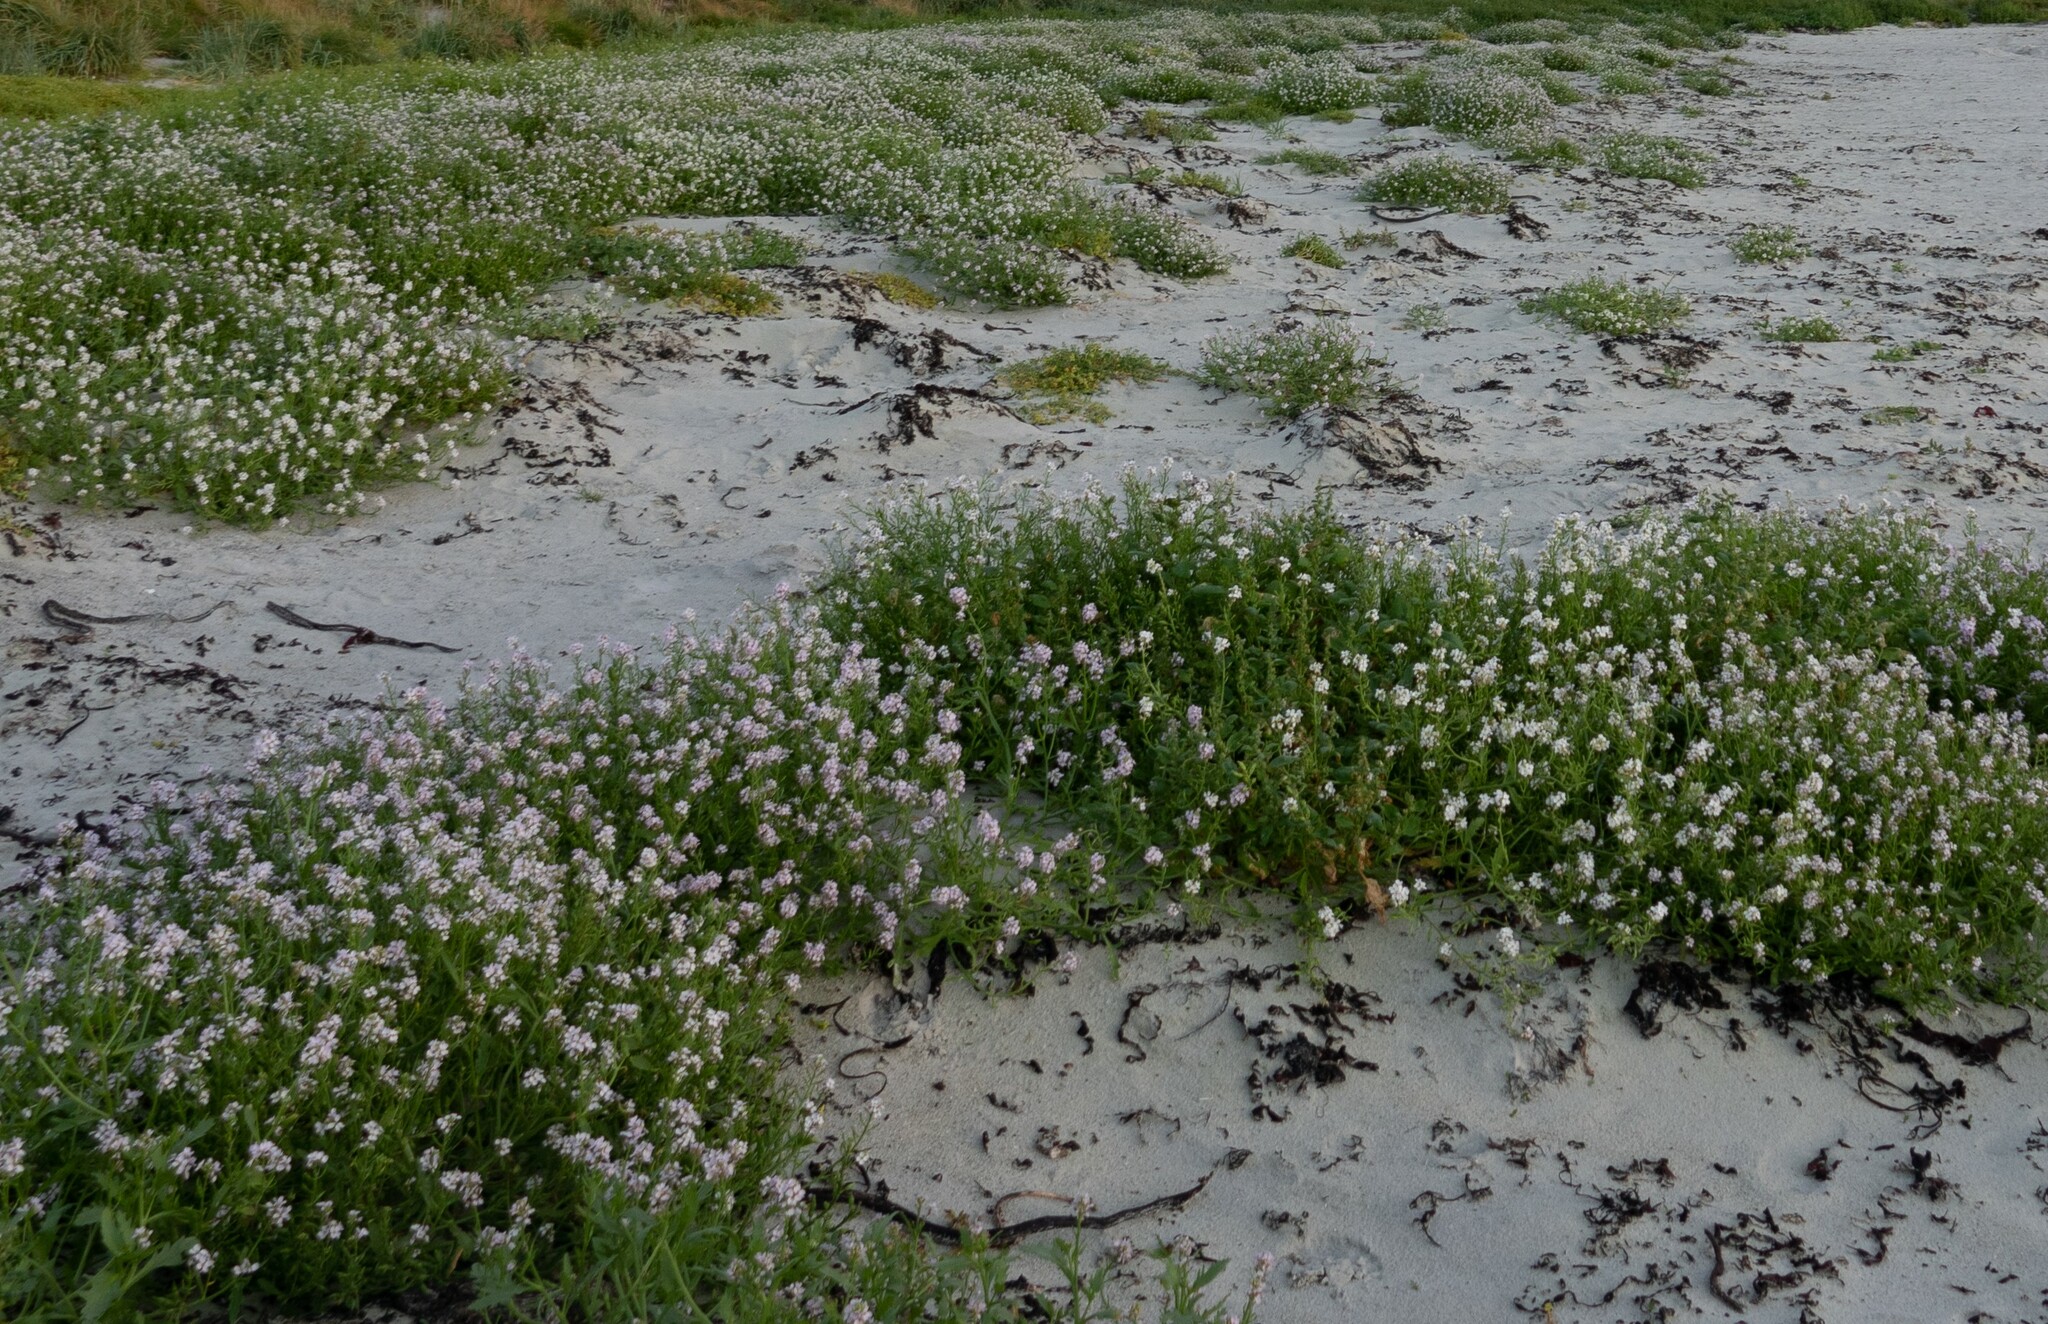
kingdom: Plantae
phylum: Tracheophyta
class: Magnoliopsida
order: Brassicales
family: Brassicaceae
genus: Cakile
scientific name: Cakile maritima
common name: Sea rocket
